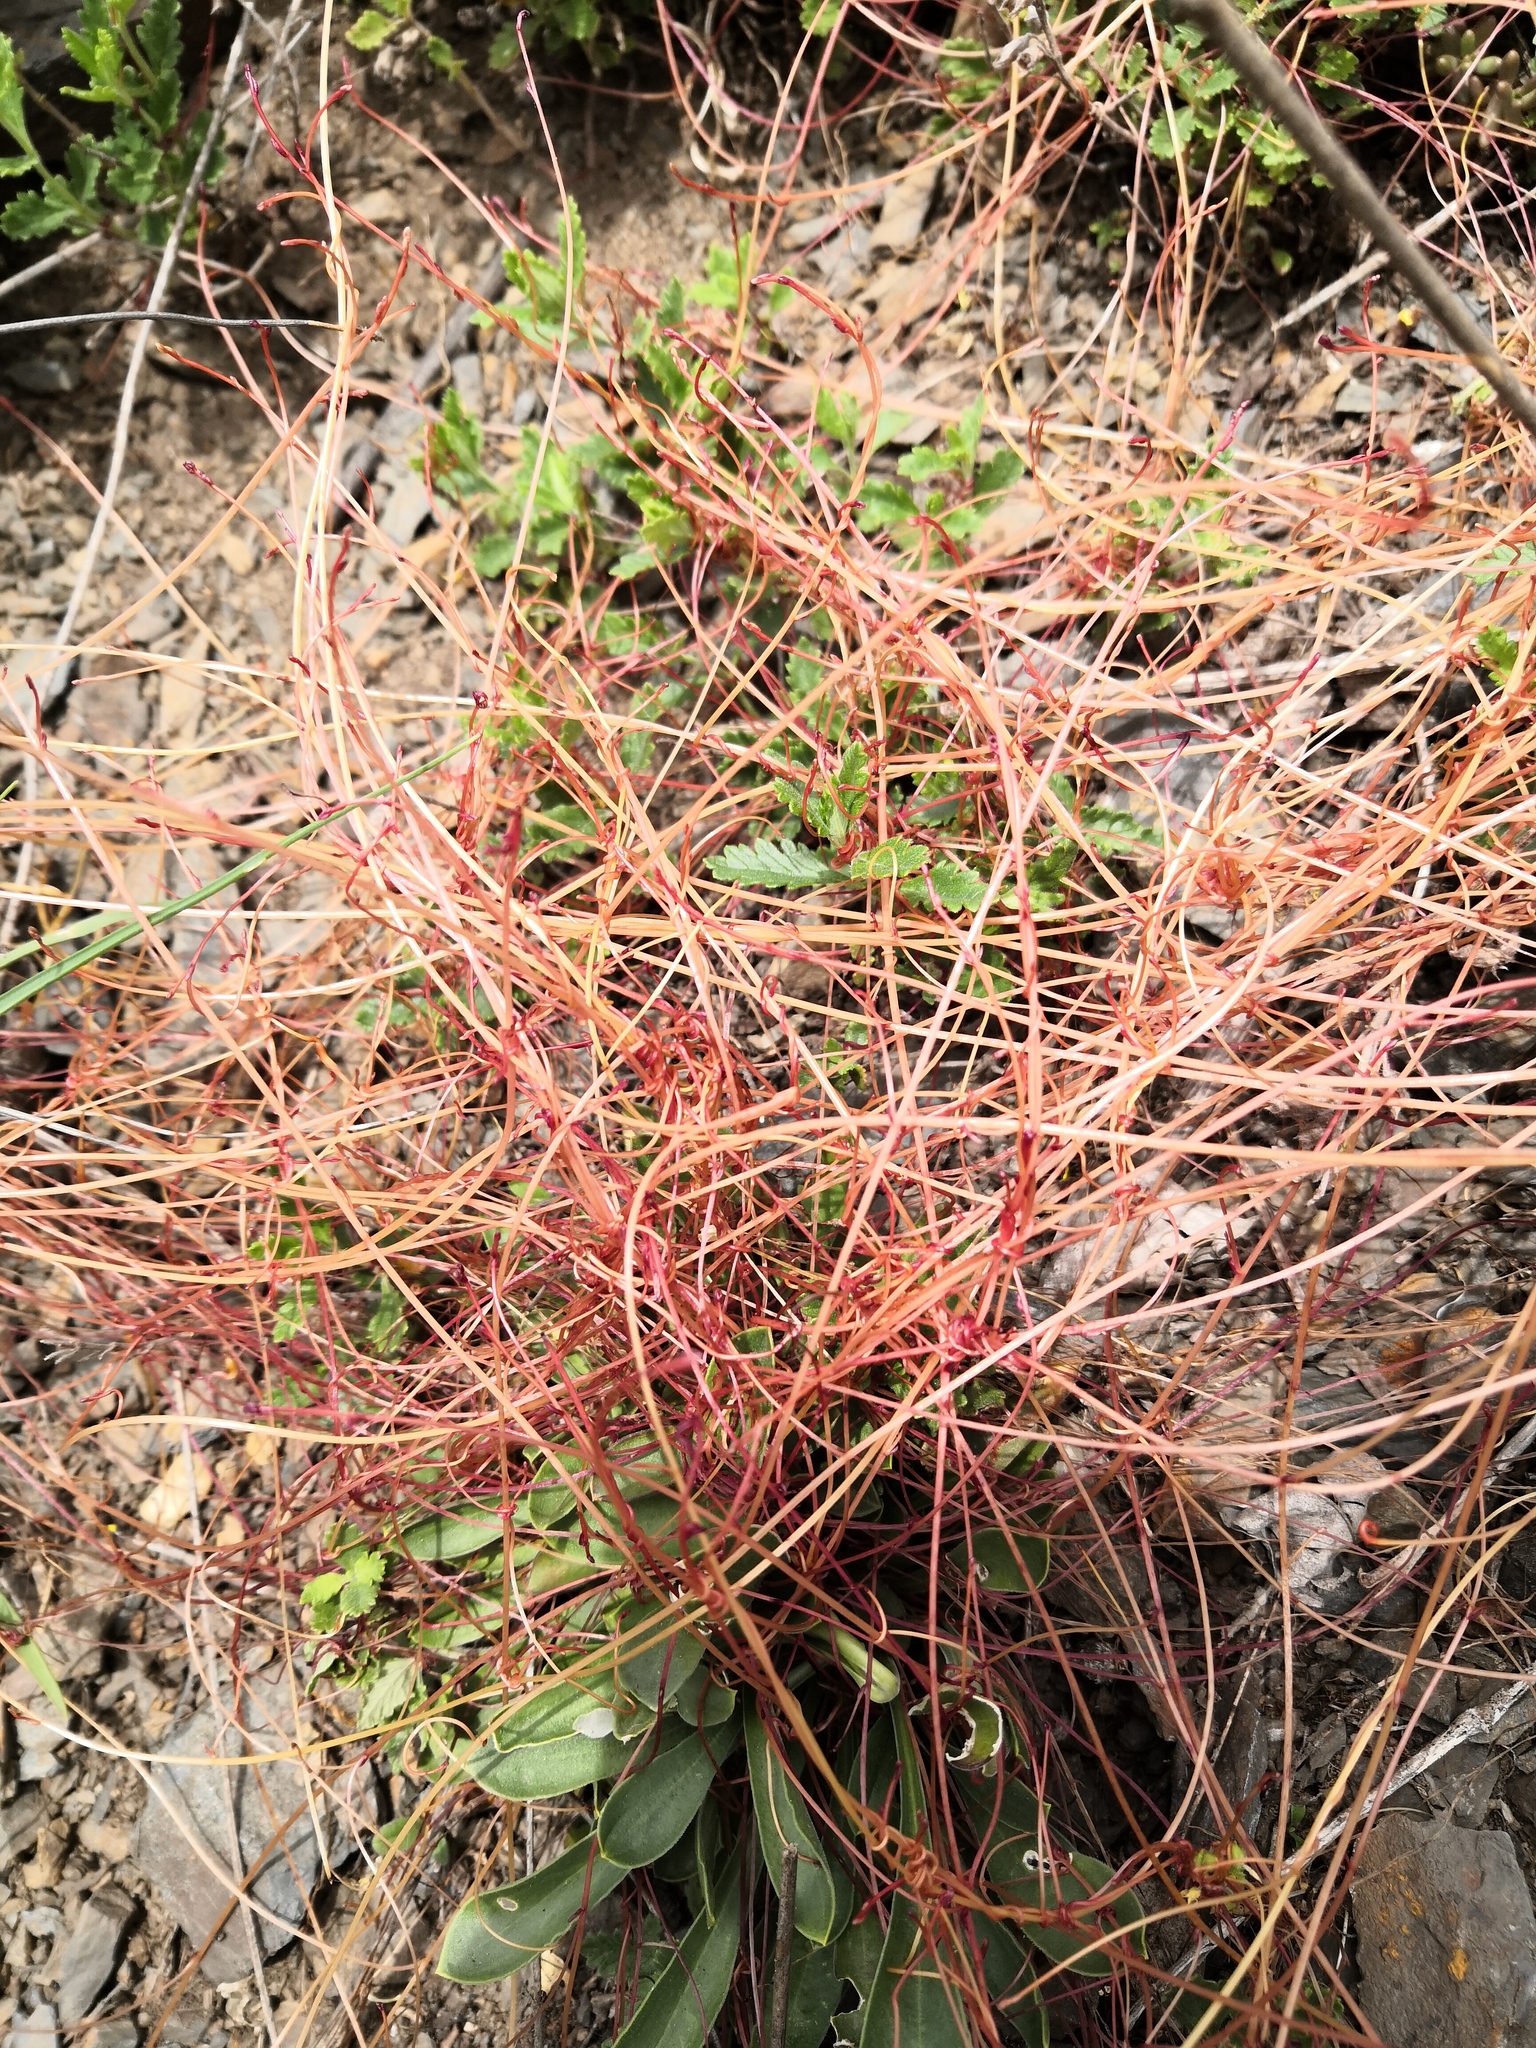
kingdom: Plantae
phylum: Tracheophyta
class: Magnoliopsida
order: Solanales
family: Convolvulaceae
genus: Cuscuta
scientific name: Cuscuta epithymum
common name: Clover dodder
